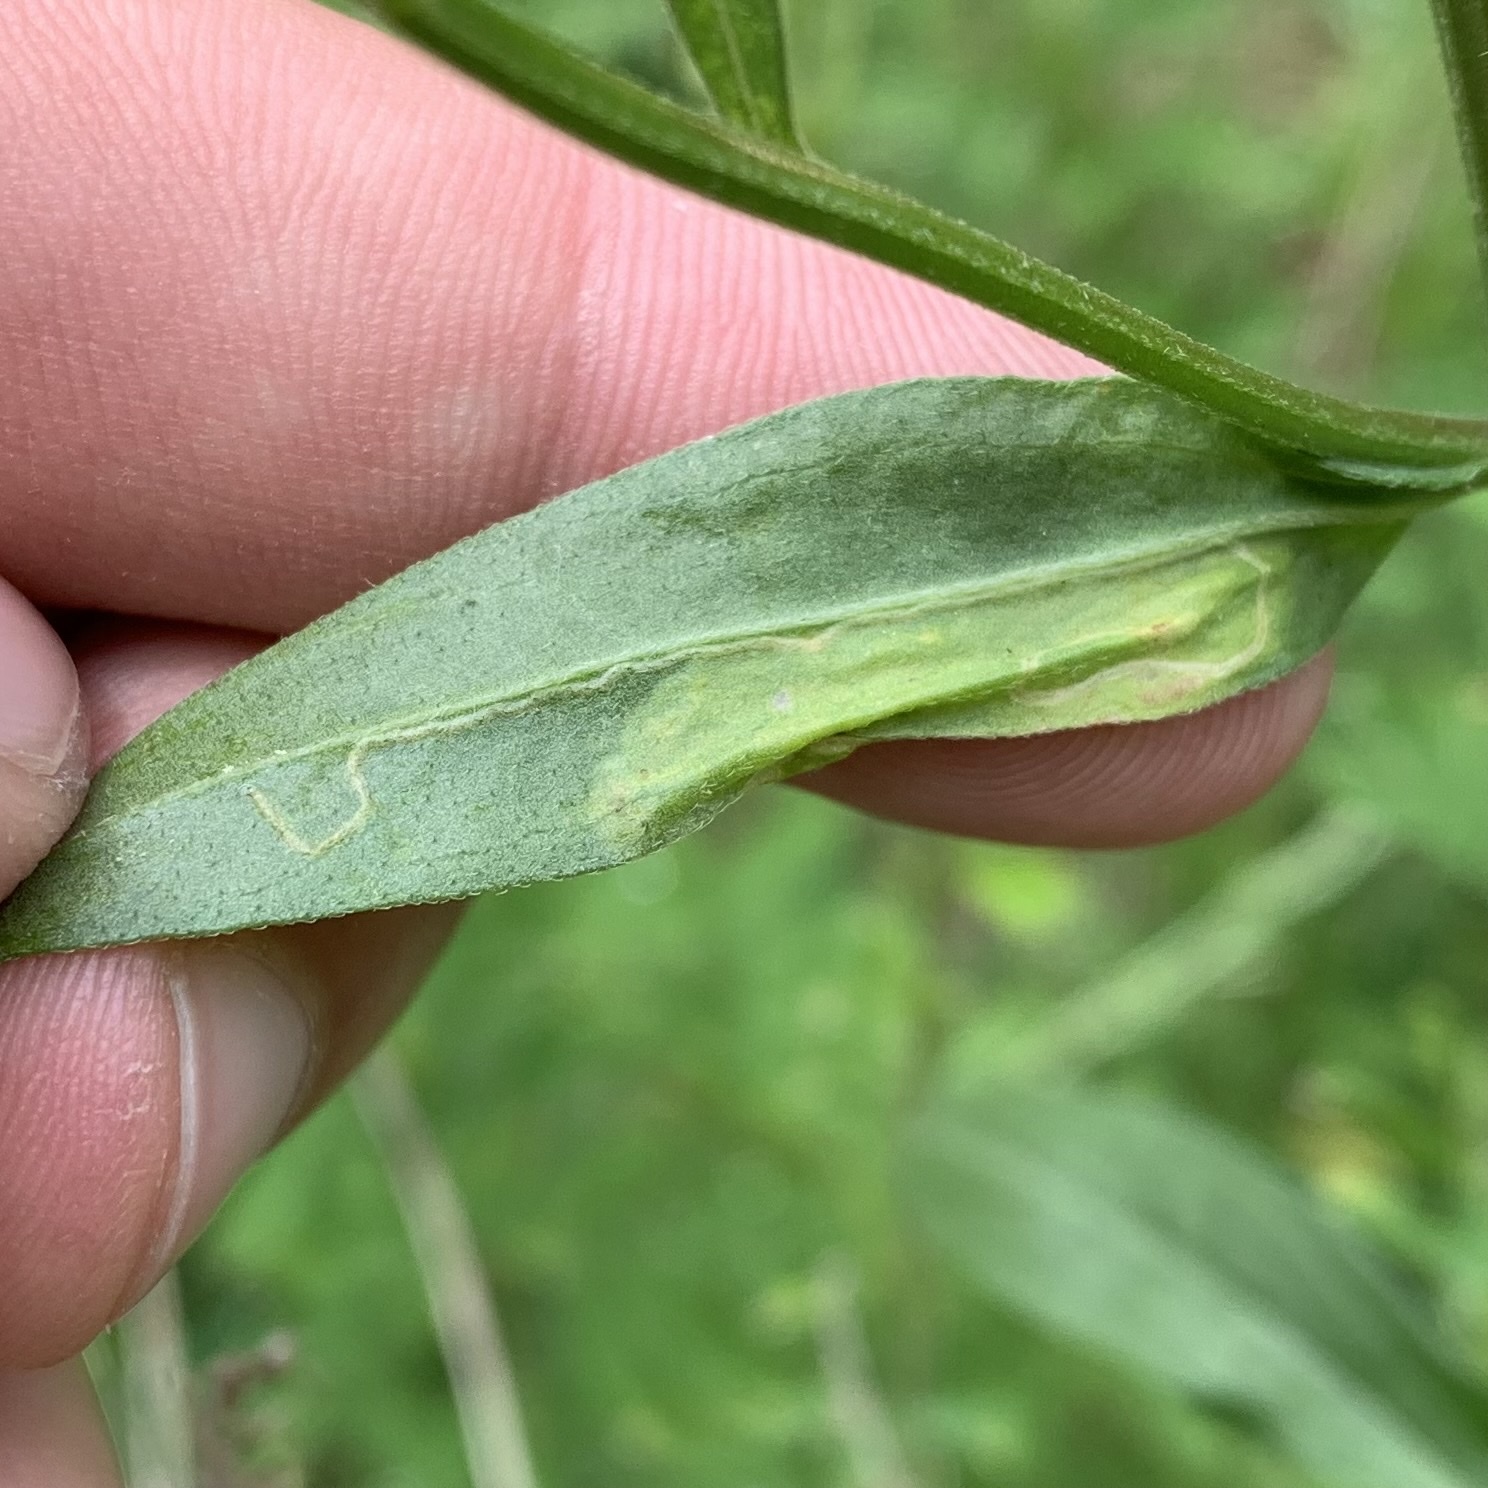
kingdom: Animalia
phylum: Arthropoda
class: Insecta
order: Lepidoptera
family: Gracillariidae
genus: Parectopa
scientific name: Parectopa plantaginisella
